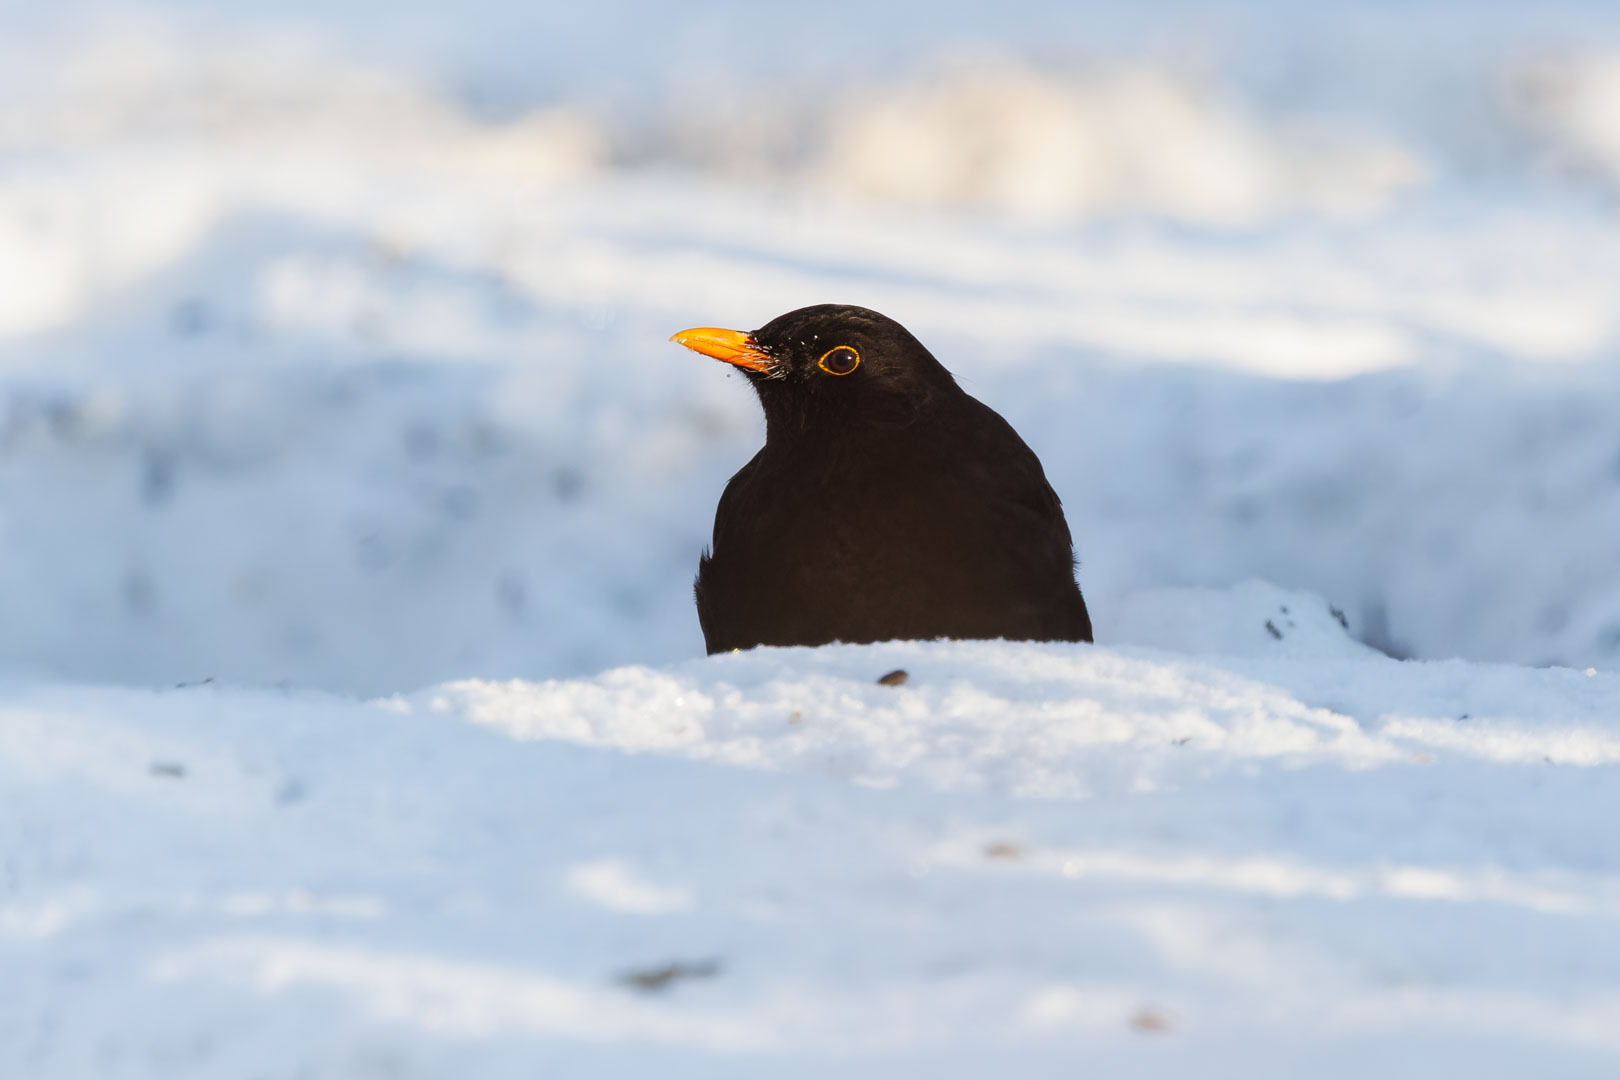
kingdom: Animalia
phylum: Chordata
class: Aves
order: Passeriformes
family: Turdidae
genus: Turdus
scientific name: Turdus merula
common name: Common blackbird
